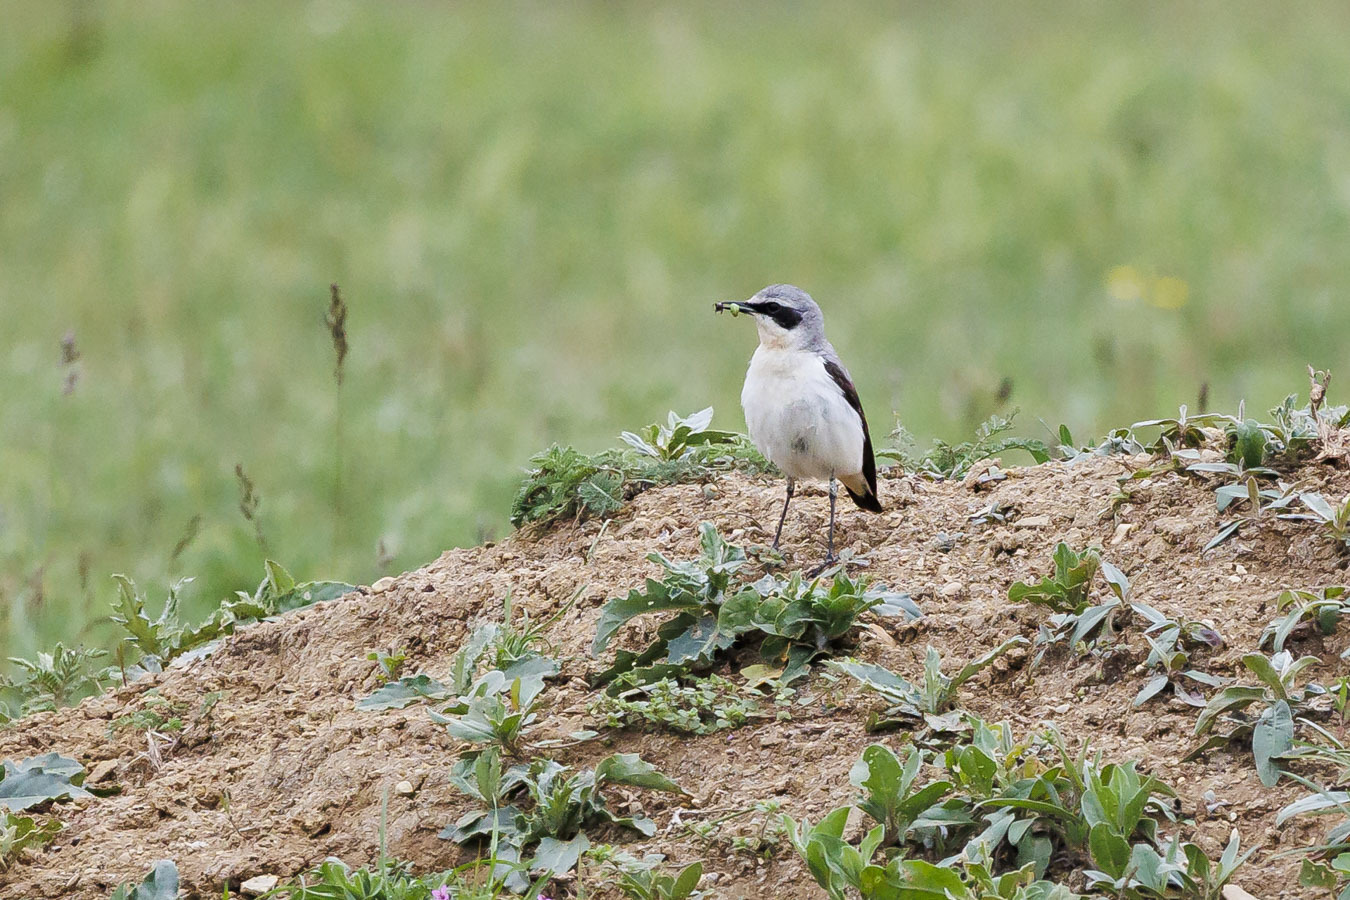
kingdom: Animalia
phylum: Chordata
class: Aves
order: Passeriformes
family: Muscicapidae
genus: Oenanthe
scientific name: Oenanthe oenanthe
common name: Northern wheatear
